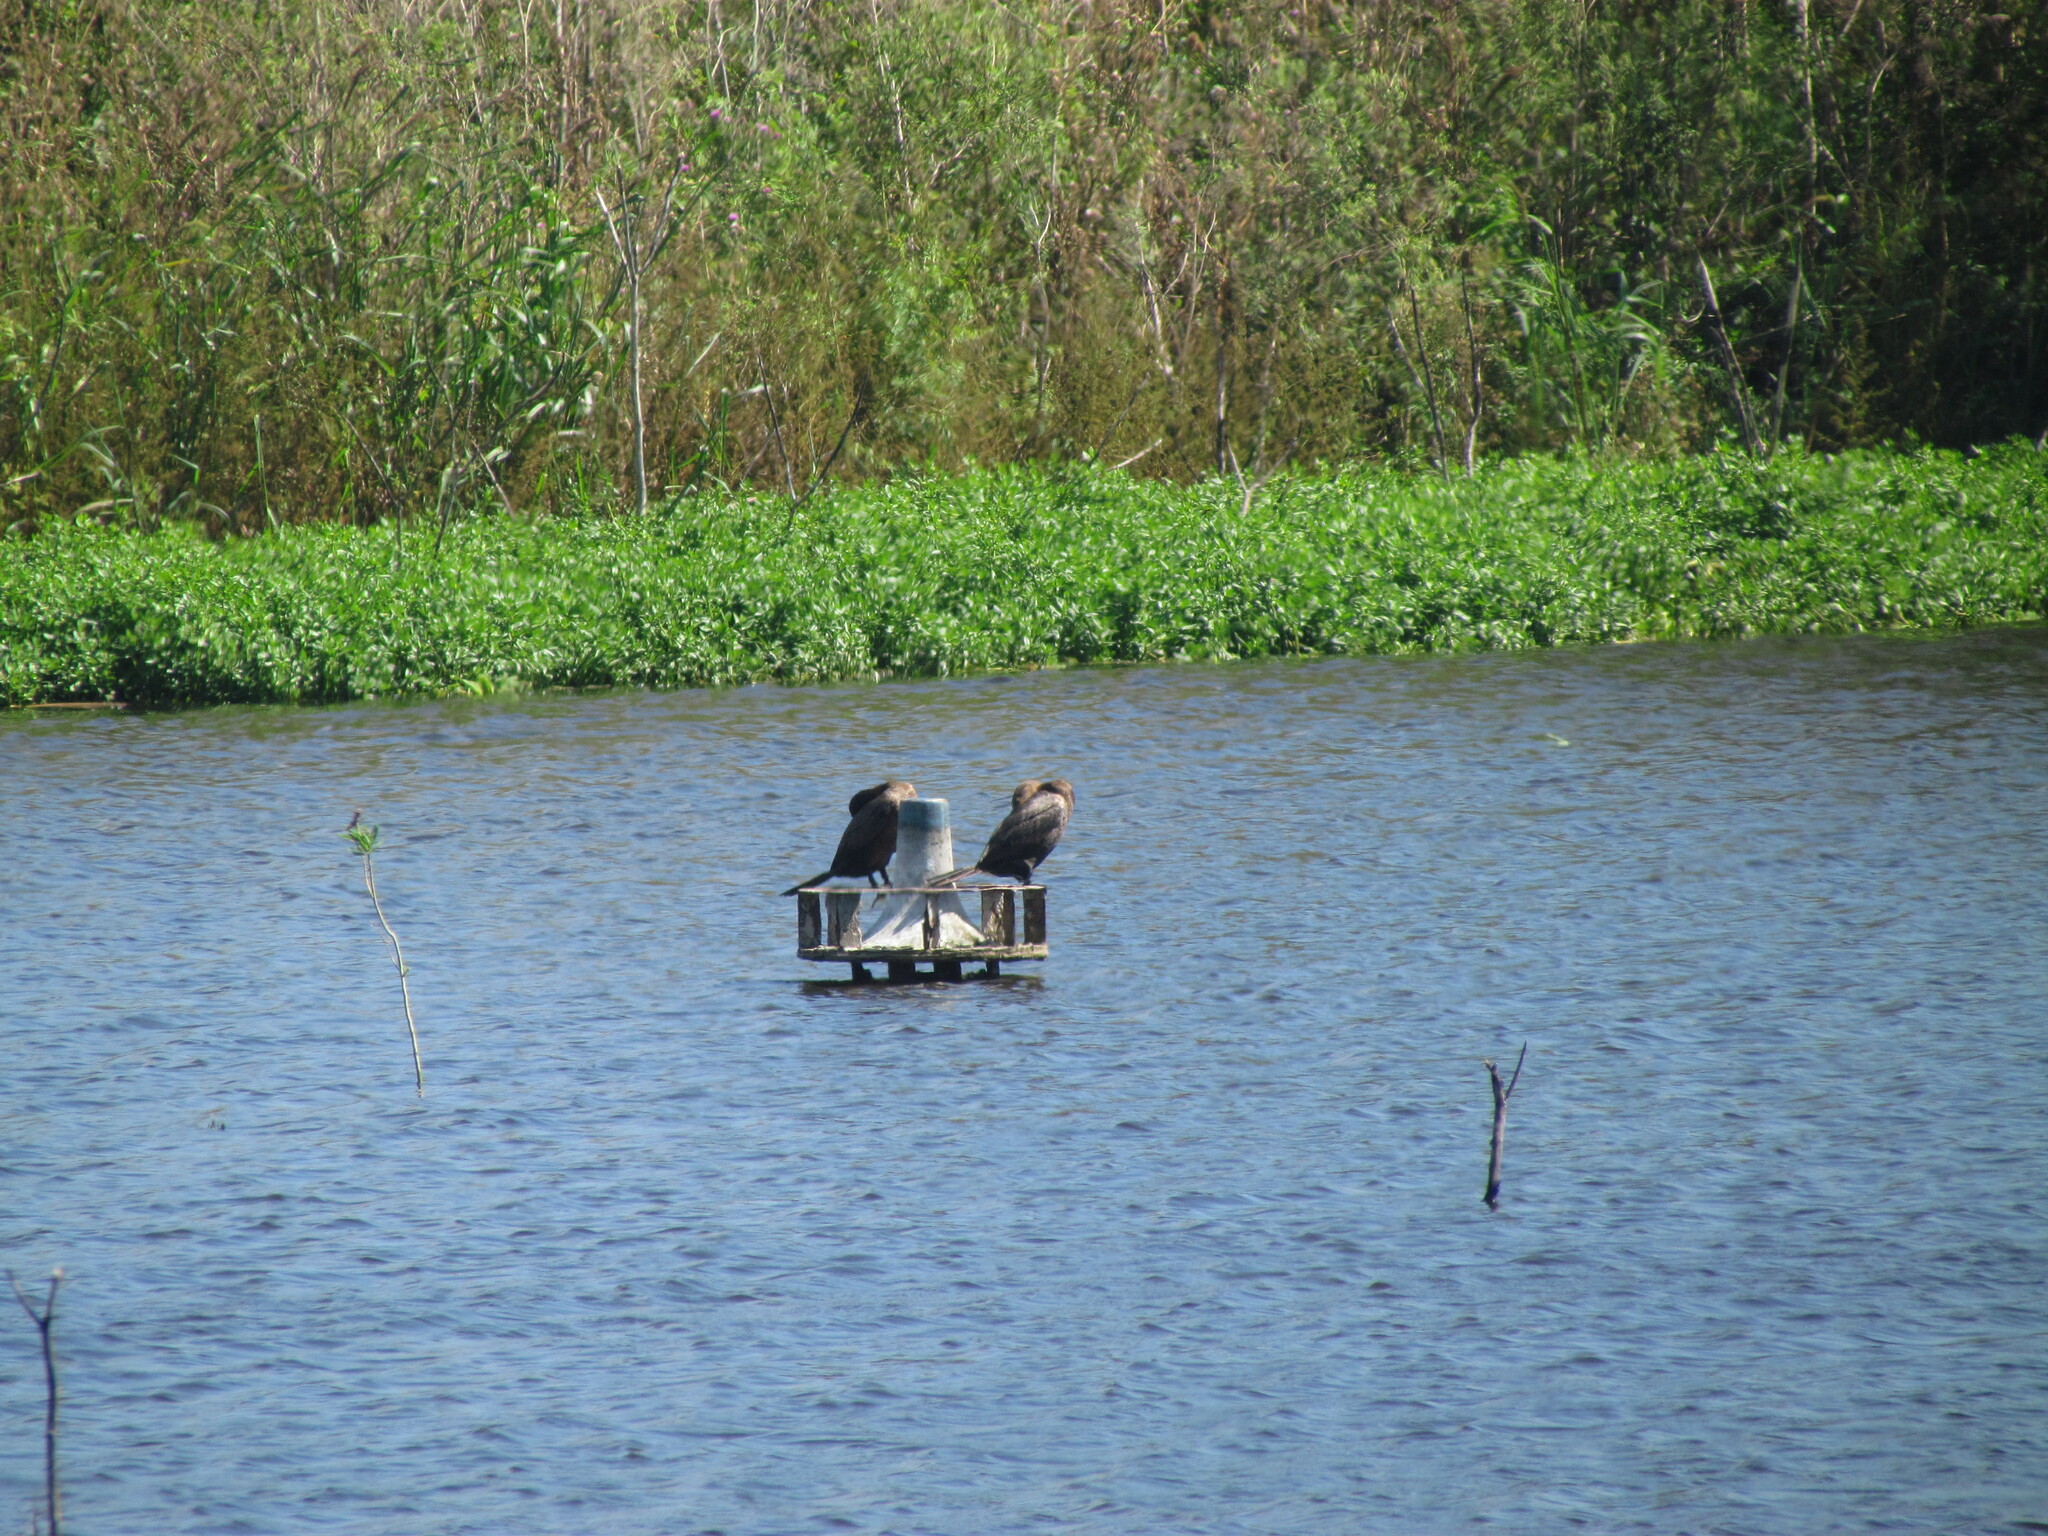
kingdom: Animalia
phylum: Chordata
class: Aves
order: Suliformes
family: Phalacrocoracidae
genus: Phalacrocorax
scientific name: Phalacrocorax brasilianus
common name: Neotropic cormorant
